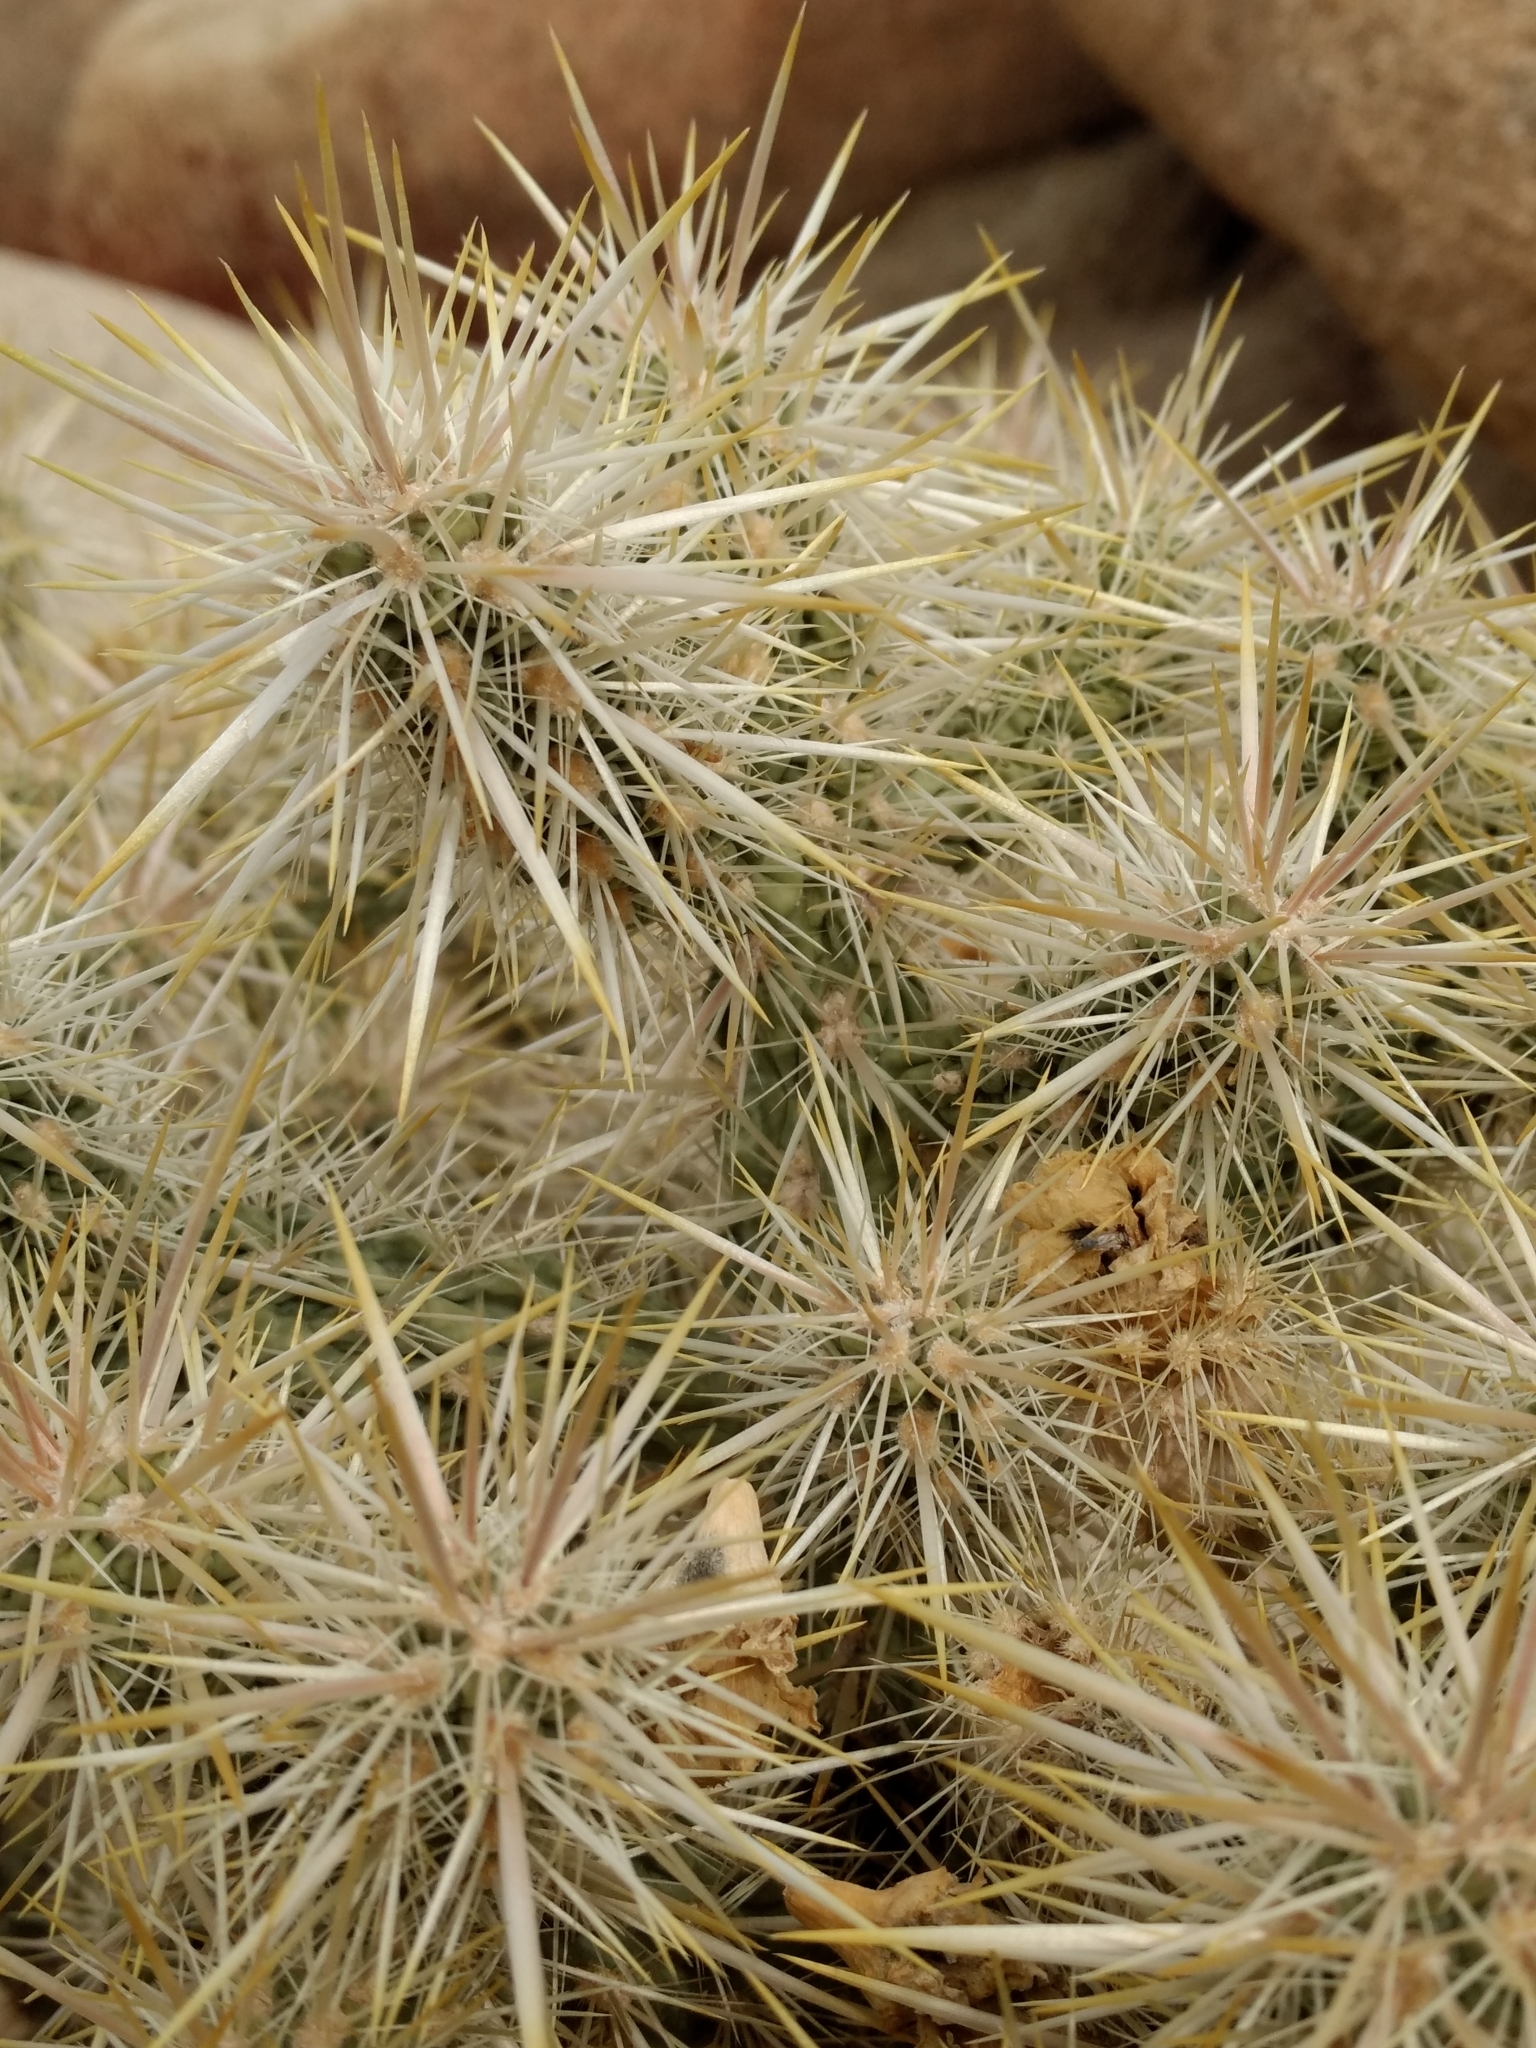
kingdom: Plantae
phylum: Tracheophyta
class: Magnoliopsida
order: Caryophyllales
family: Cactaceae
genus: Cylindropuntia
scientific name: Cylindropuntia echinocarpa
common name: Ground cholla
